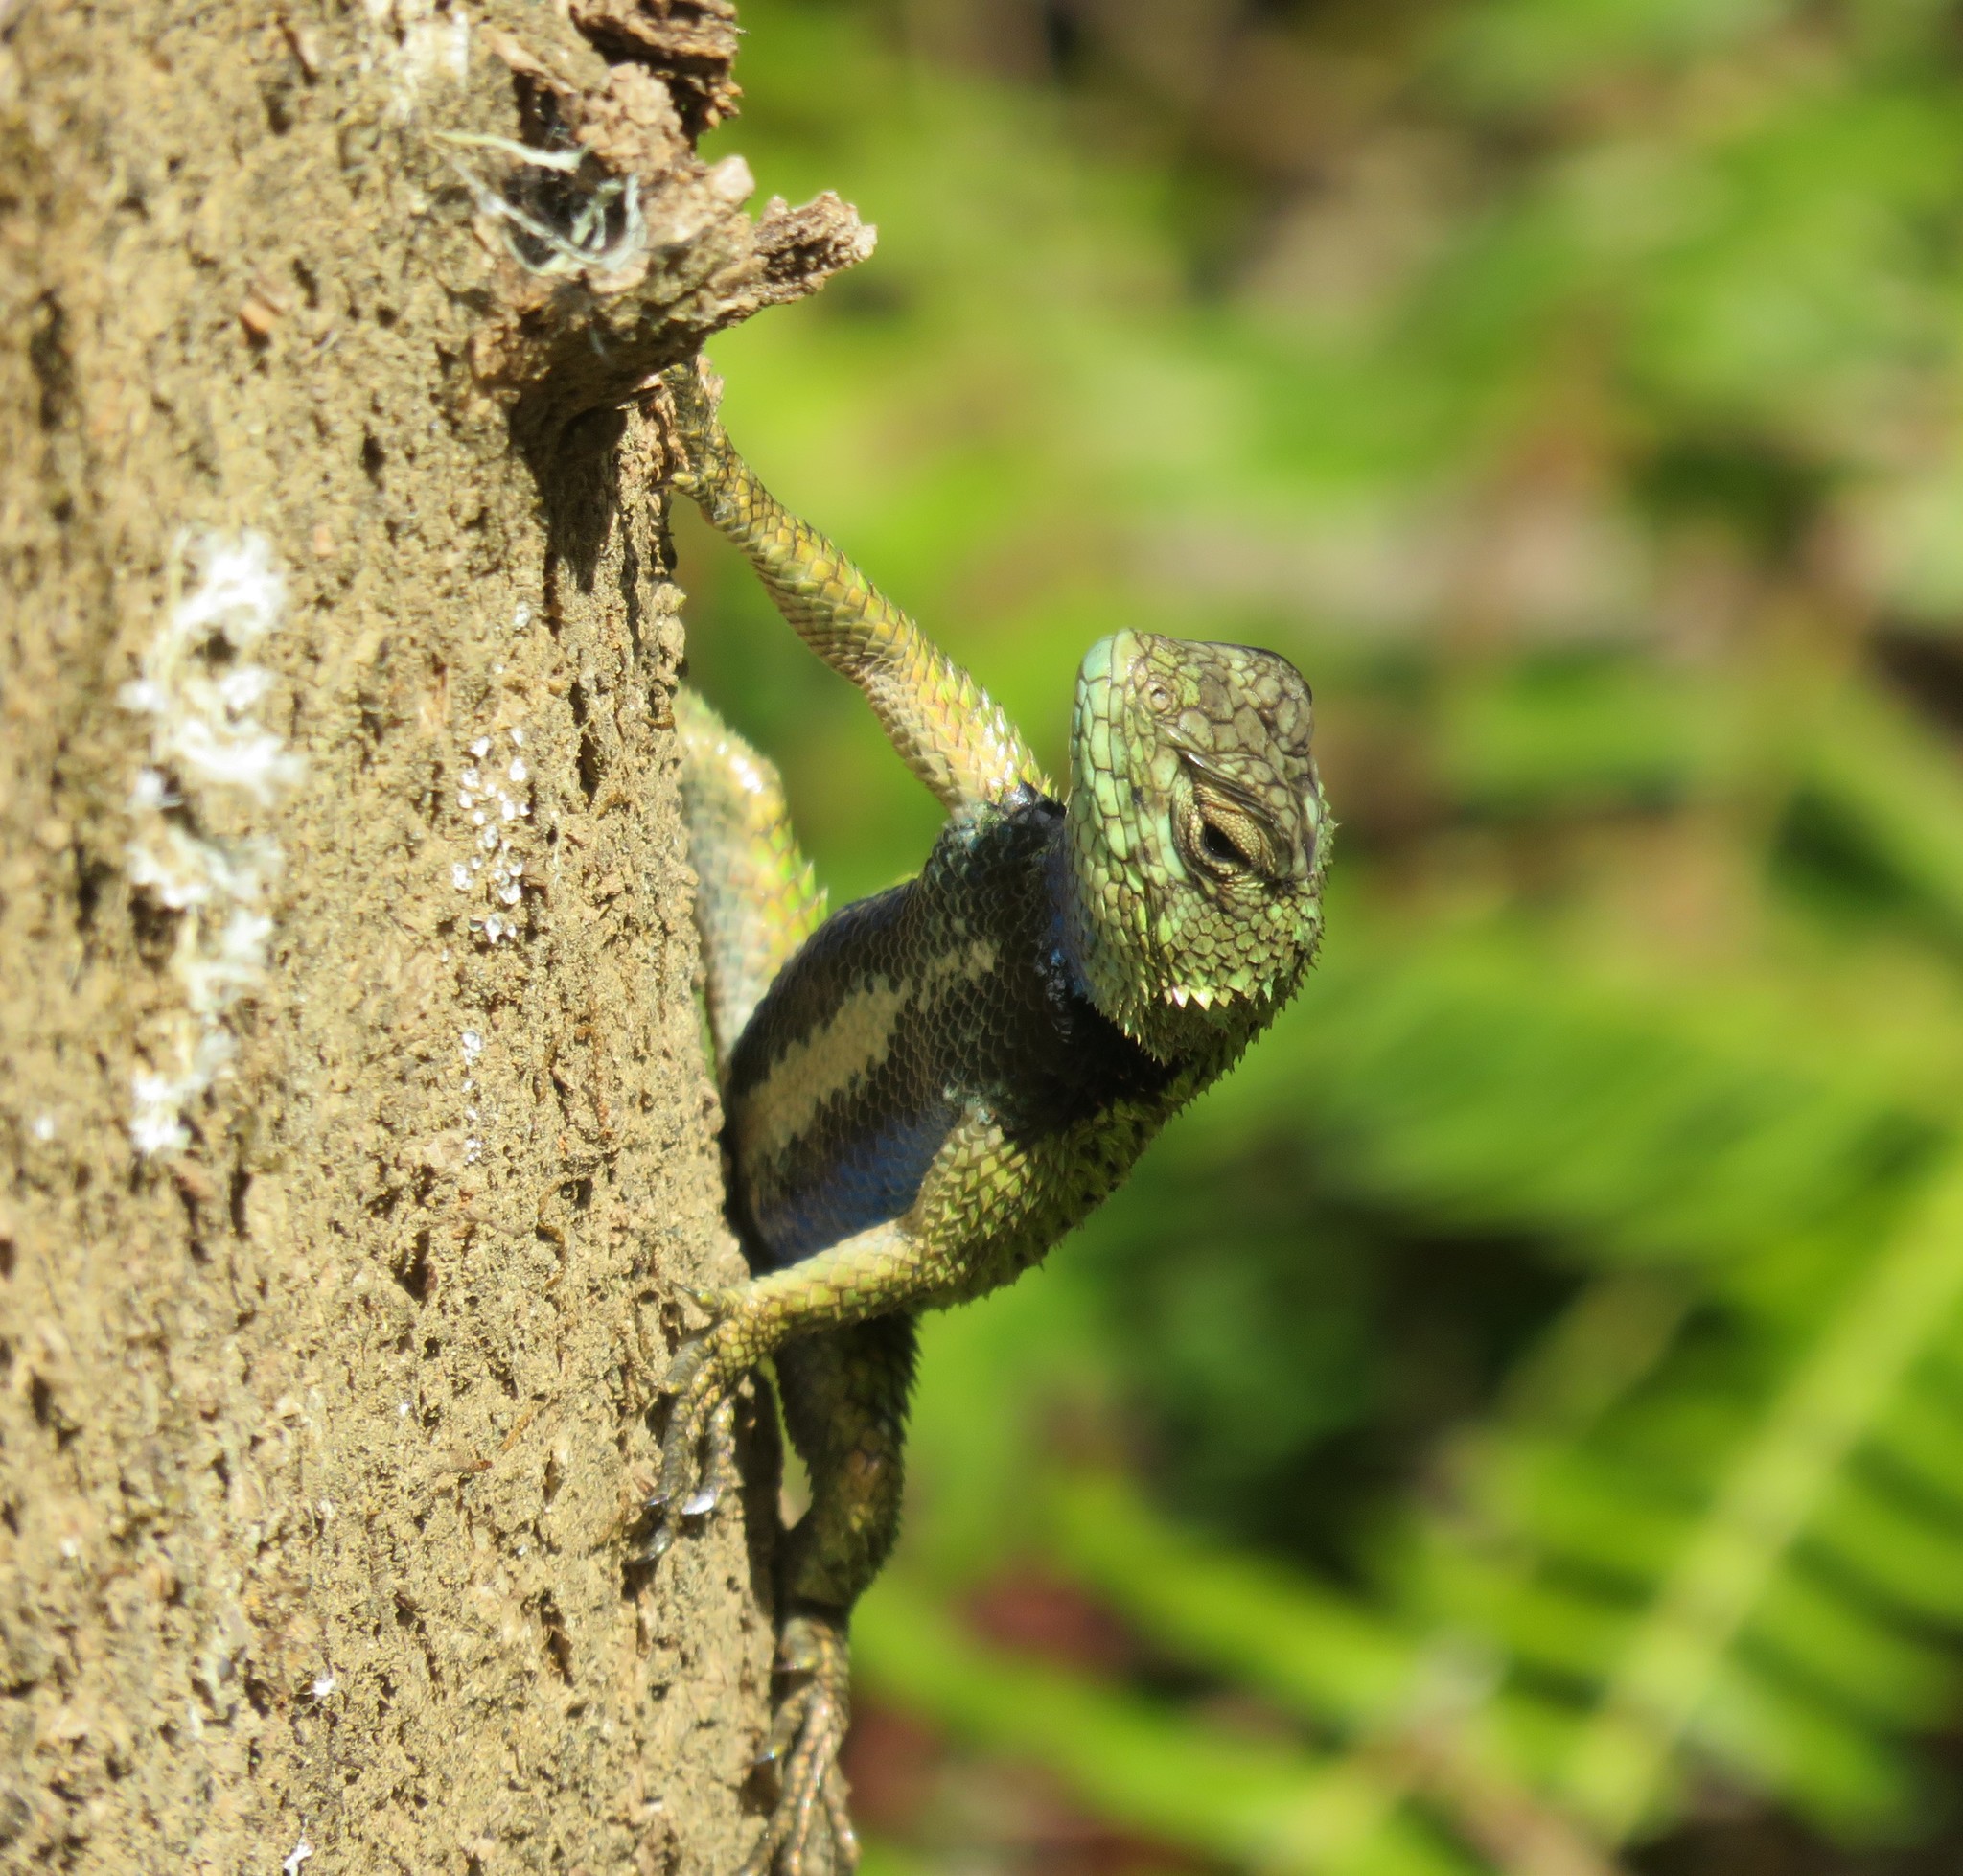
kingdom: Animalia
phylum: Chordata
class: Squamata
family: Phrynosomatidae
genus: Sceloporus
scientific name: Sceloporus malachiticus
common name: Green spiny lizard
